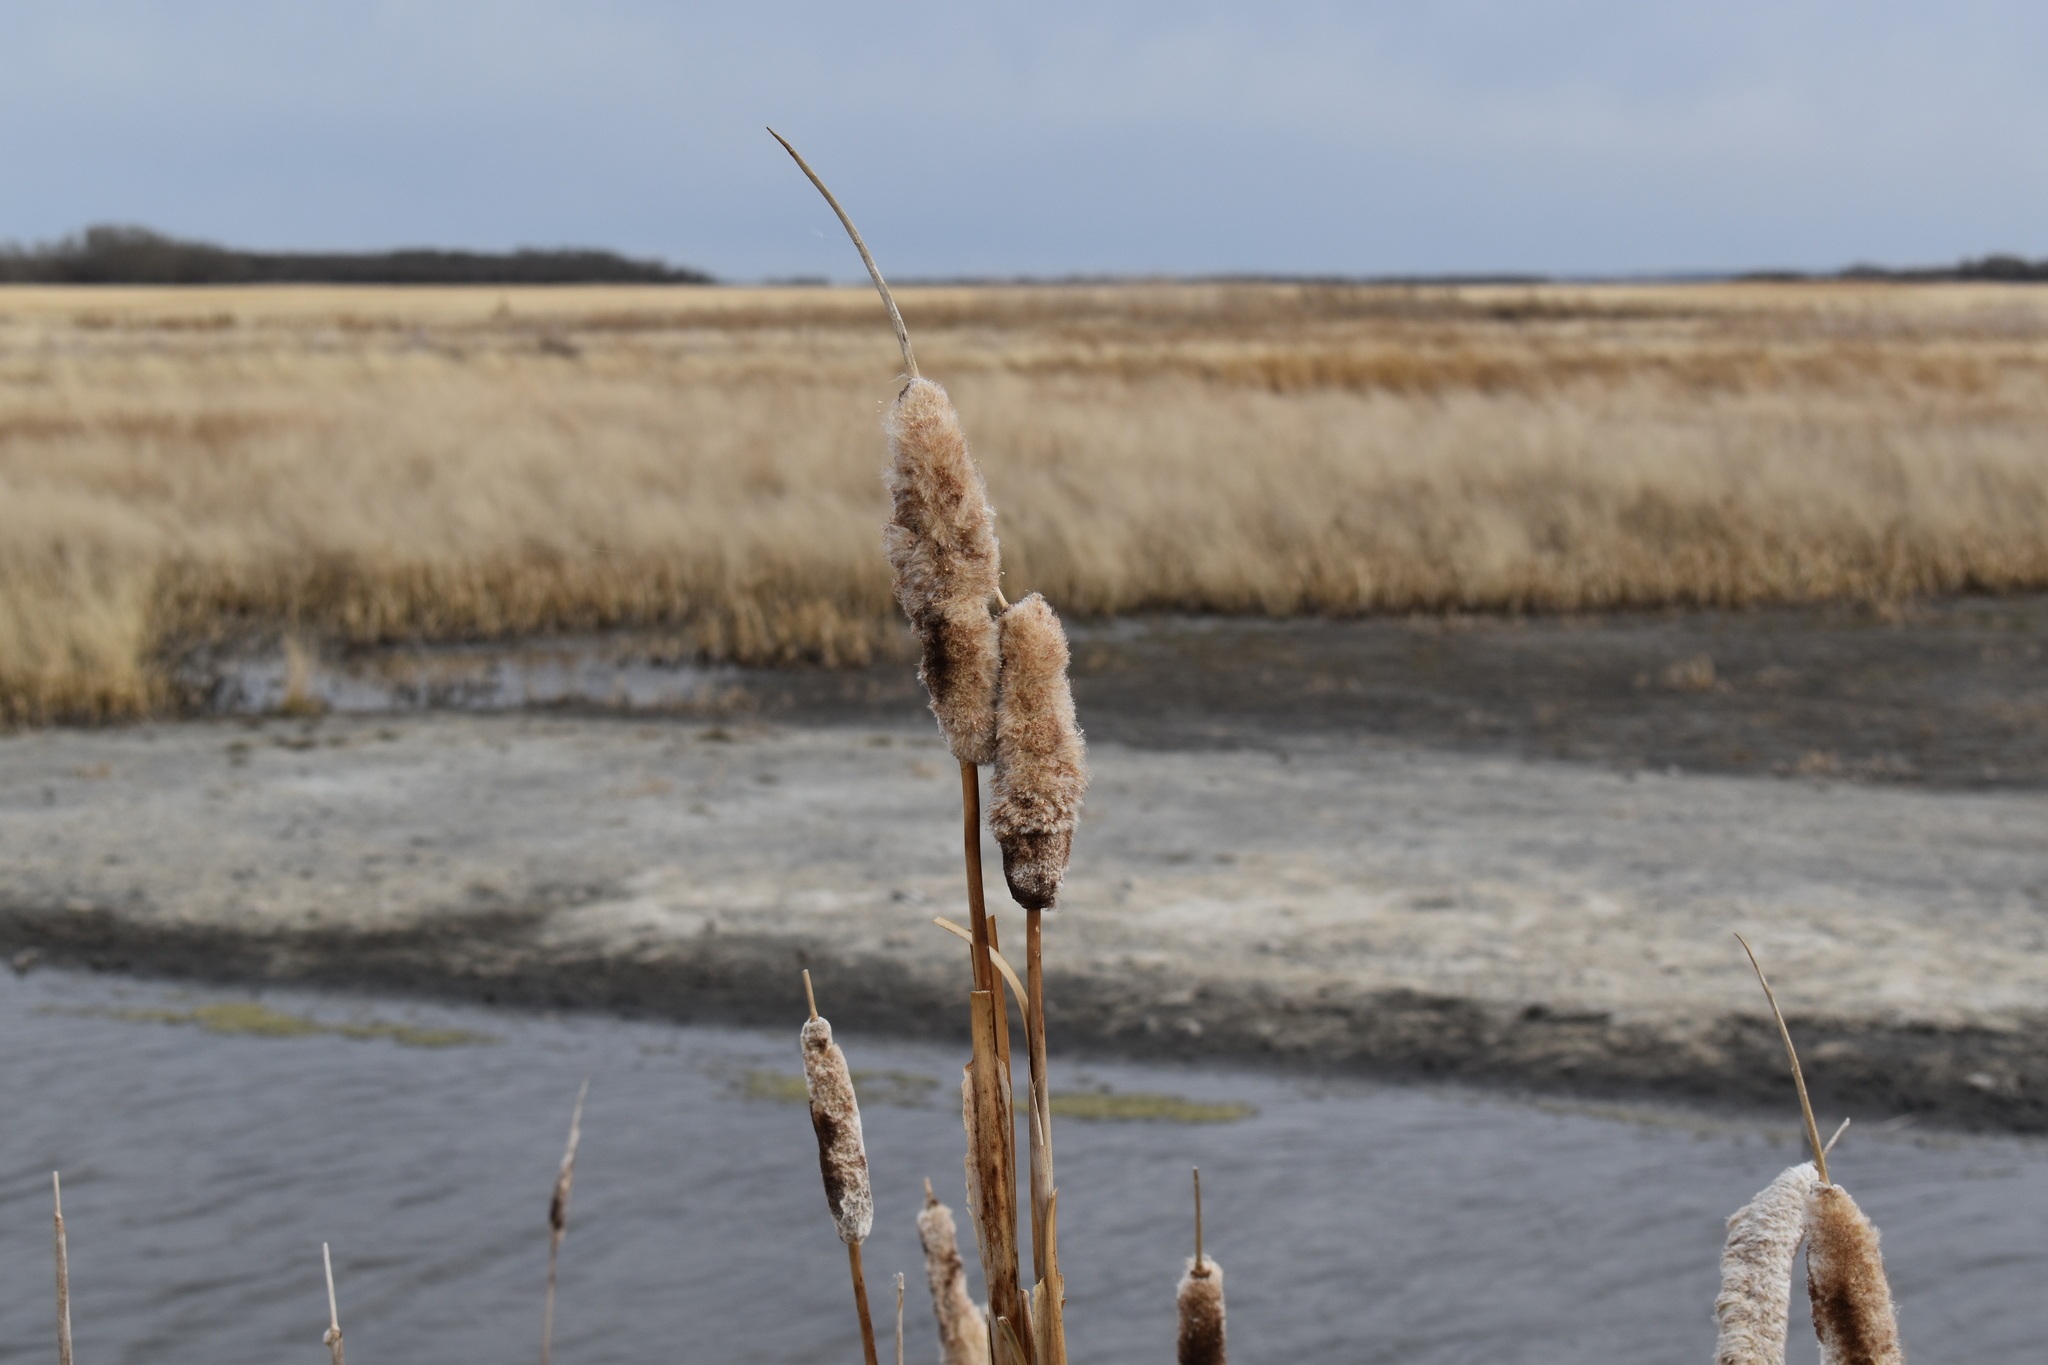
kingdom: Plantae
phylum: Tracheophyta
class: Liliopsida
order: Poales
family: Typhaceae
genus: Typha
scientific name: Typha latifolia
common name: Broadleaf cattail
